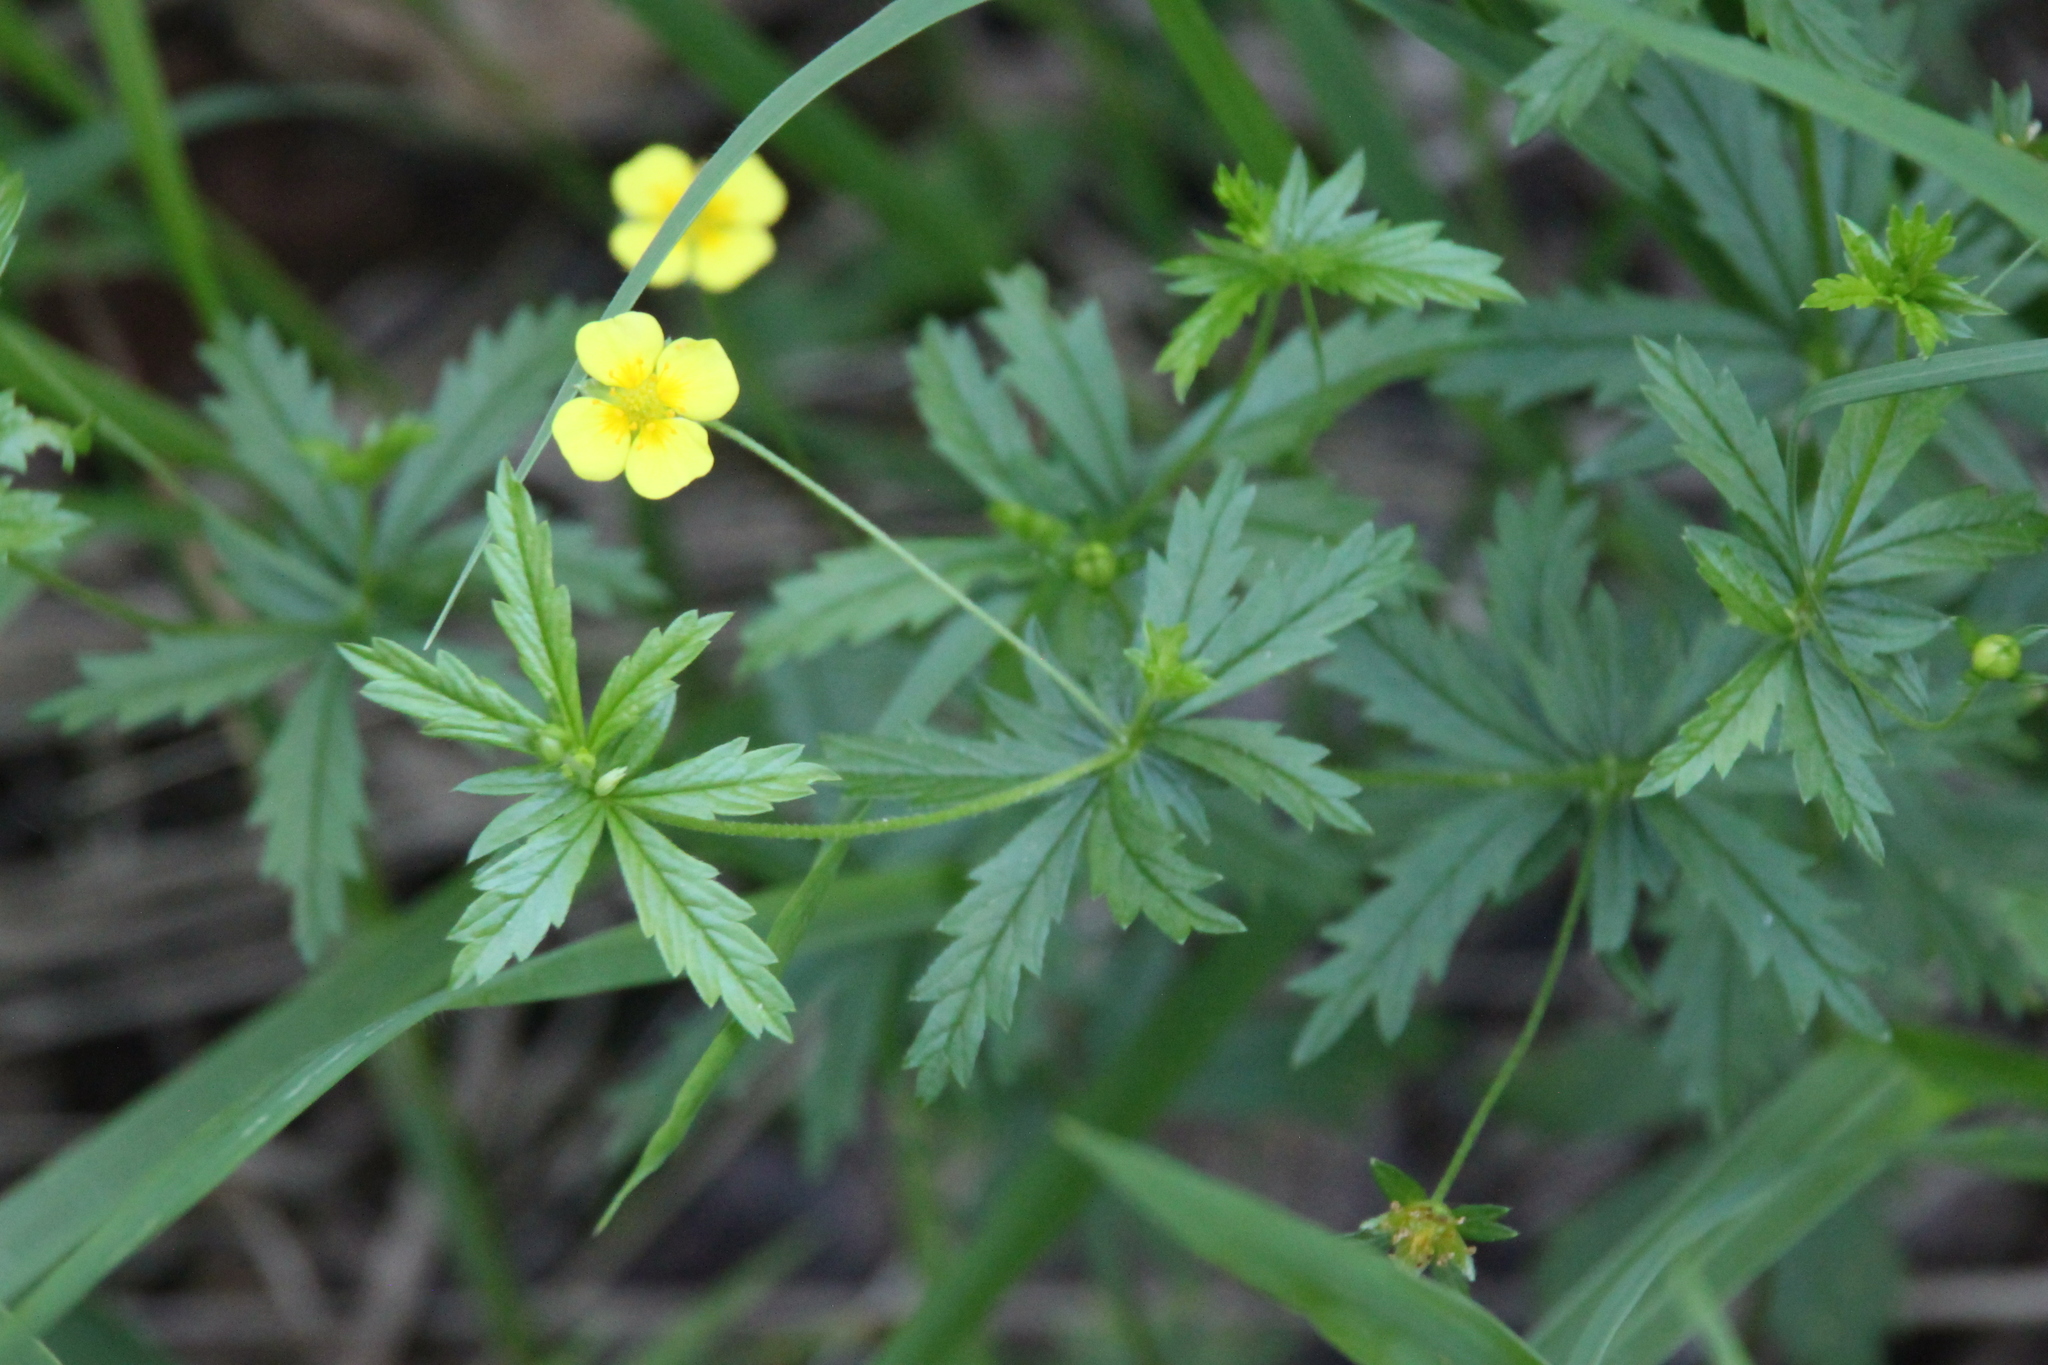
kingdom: Plantae
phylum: Tracheophyta
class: Magnoliopsida
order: Rosales
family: Rosaceae
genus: Potentilla
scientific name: Potentilla erecta
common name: Tormentil
